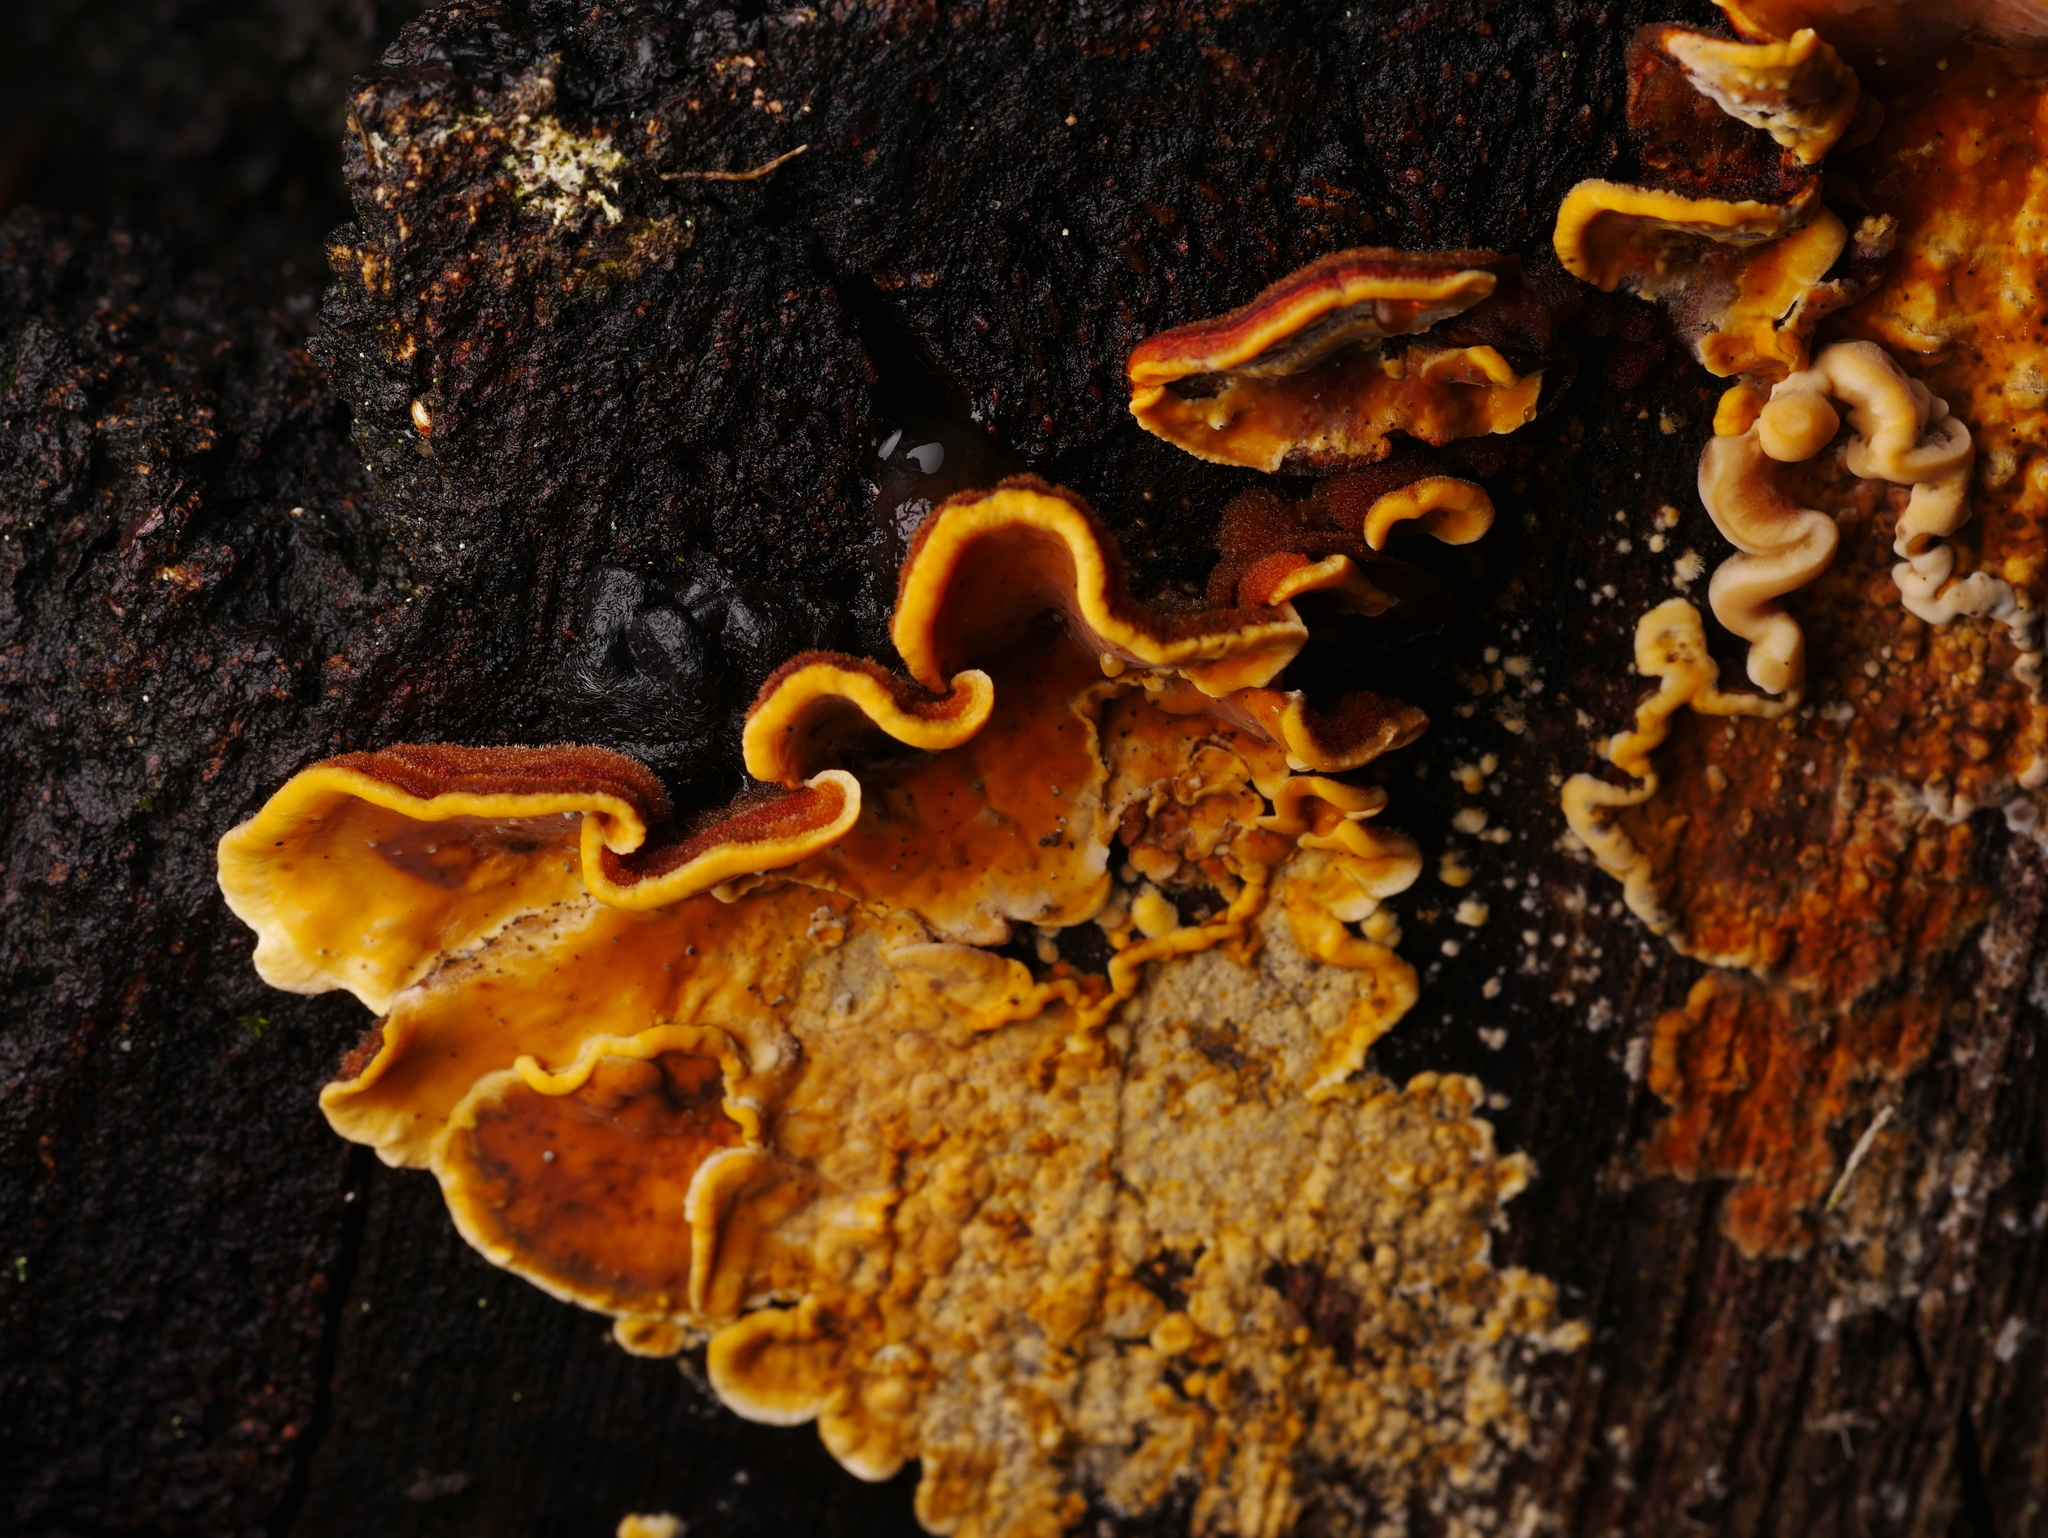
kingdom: Fungi
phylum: Basidiomycota
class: Agaricomycetes
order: Russulales
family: Stereaceae
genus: Stereum
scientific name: Stereum hirsutum
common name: Hairy curtain crust
